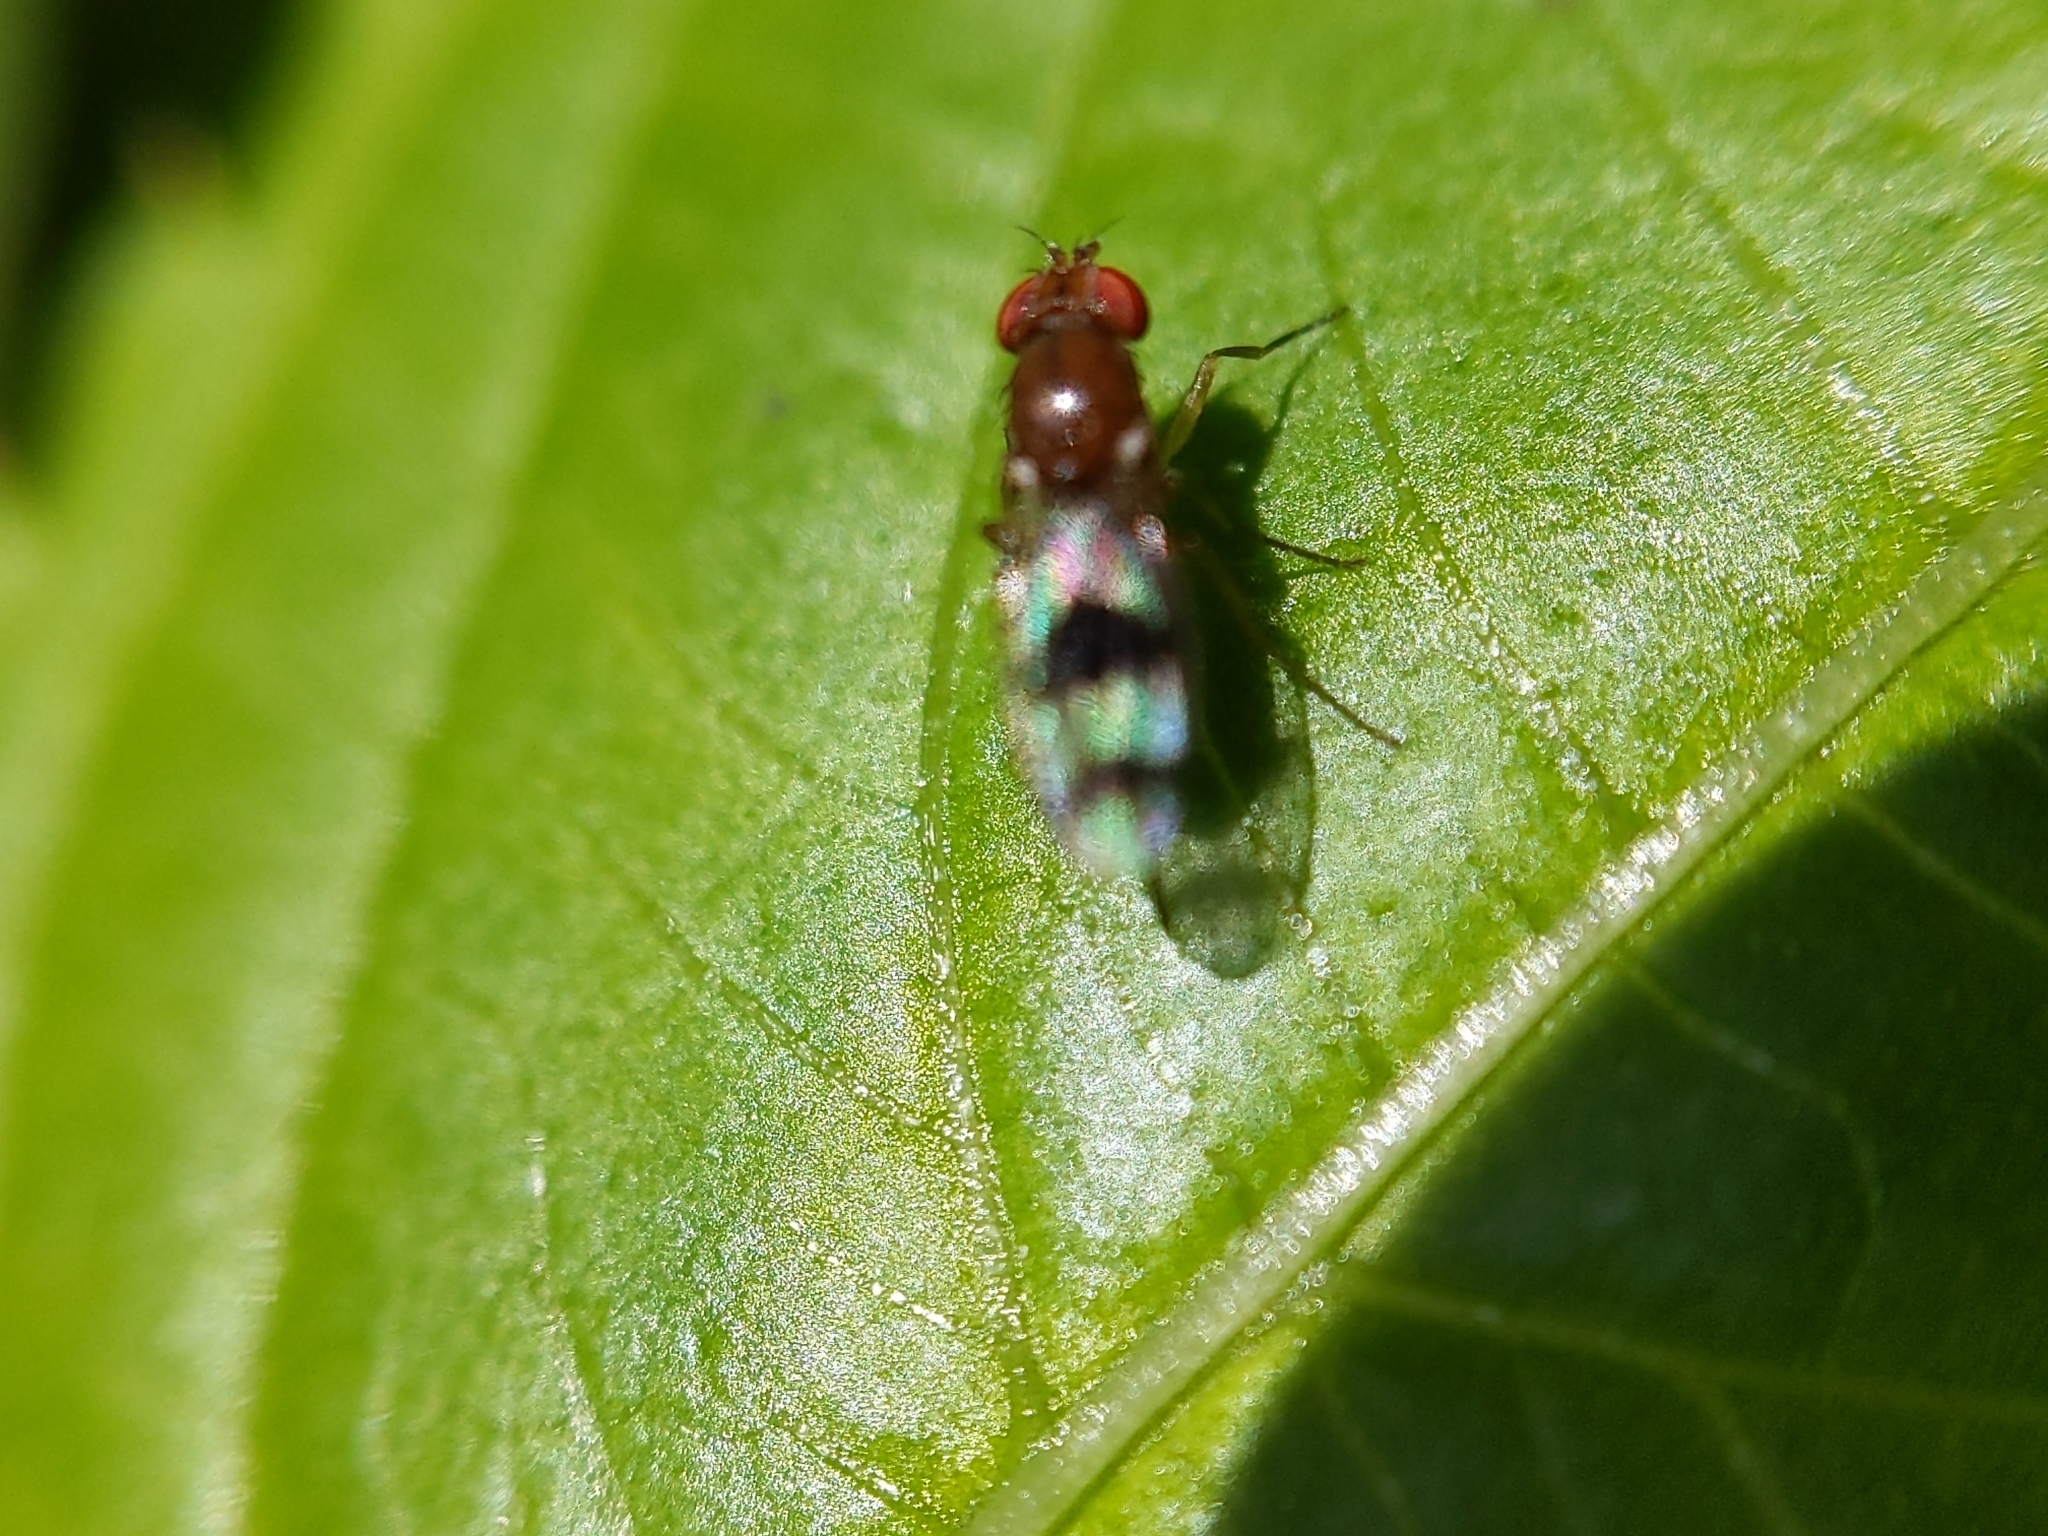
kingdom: Animalia
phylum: Arthropoda
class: Insecta
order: Diptera
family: Drosophilidae
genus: Chymomyza
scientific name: Chymomyza amoena
